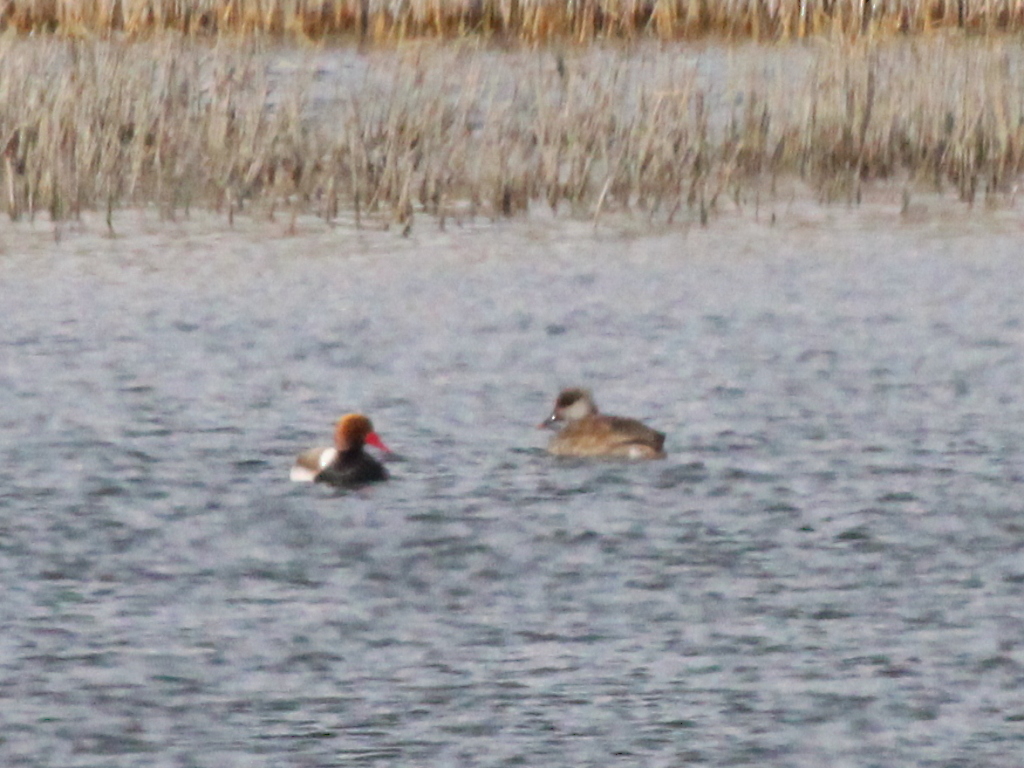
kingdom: Animalia
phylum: Chordata
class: Aves
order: Anseriformes
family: Anatidae
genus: Netta
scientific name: Netta rufina
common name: Red-crested pochard
